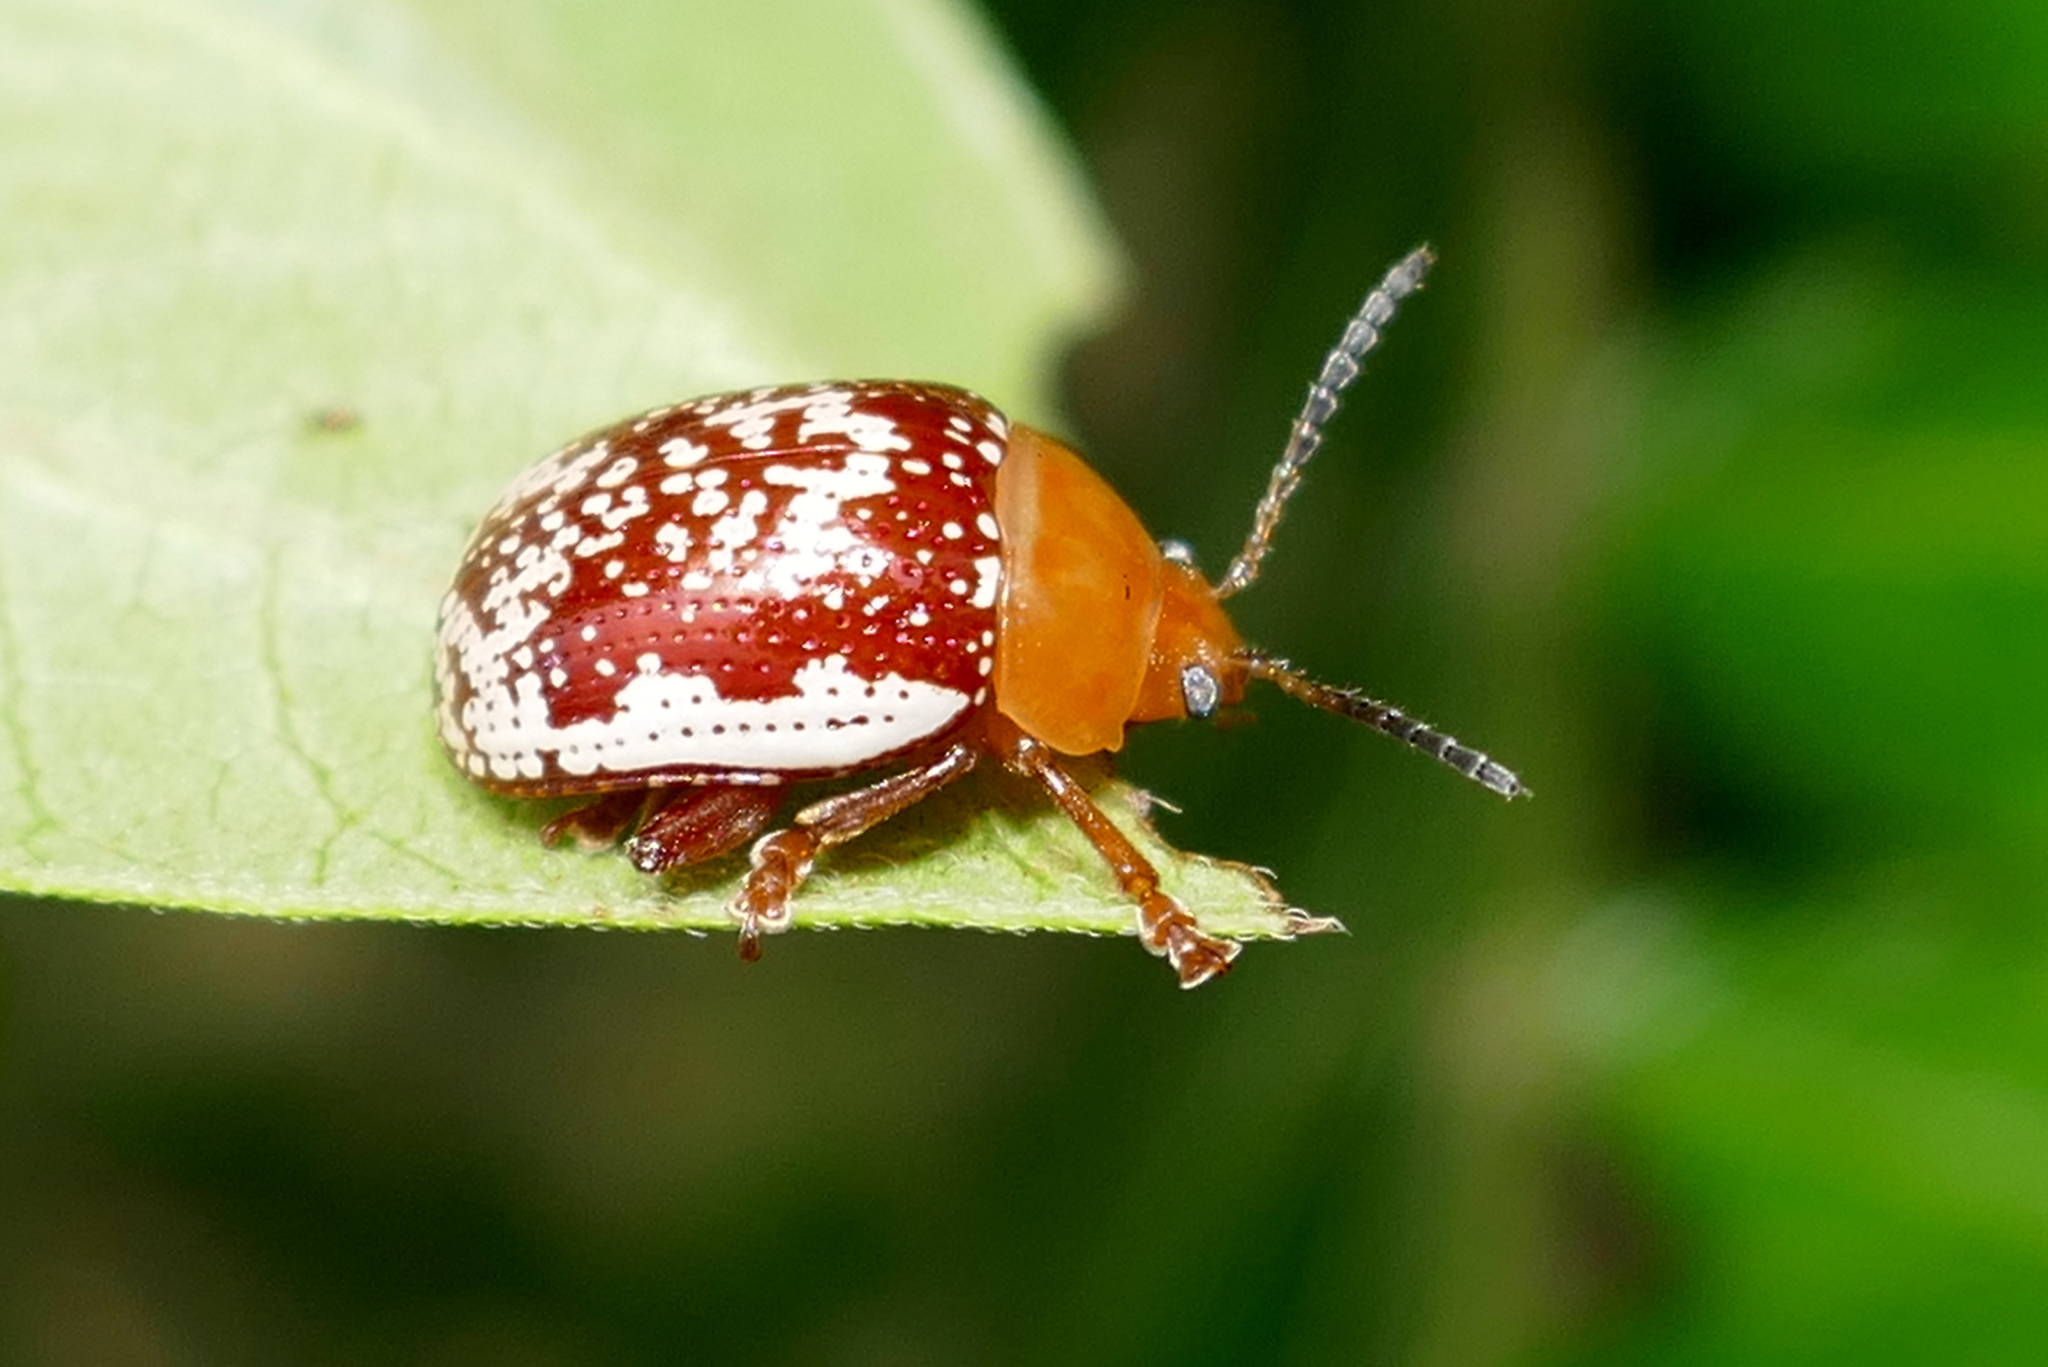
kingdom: Animalia
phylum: Arthropoda
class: Insecta
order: Coleoptera
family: Chrysomelidae
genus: Blepharida
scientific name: Blepharida rhois
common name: Sumac flea beetle
